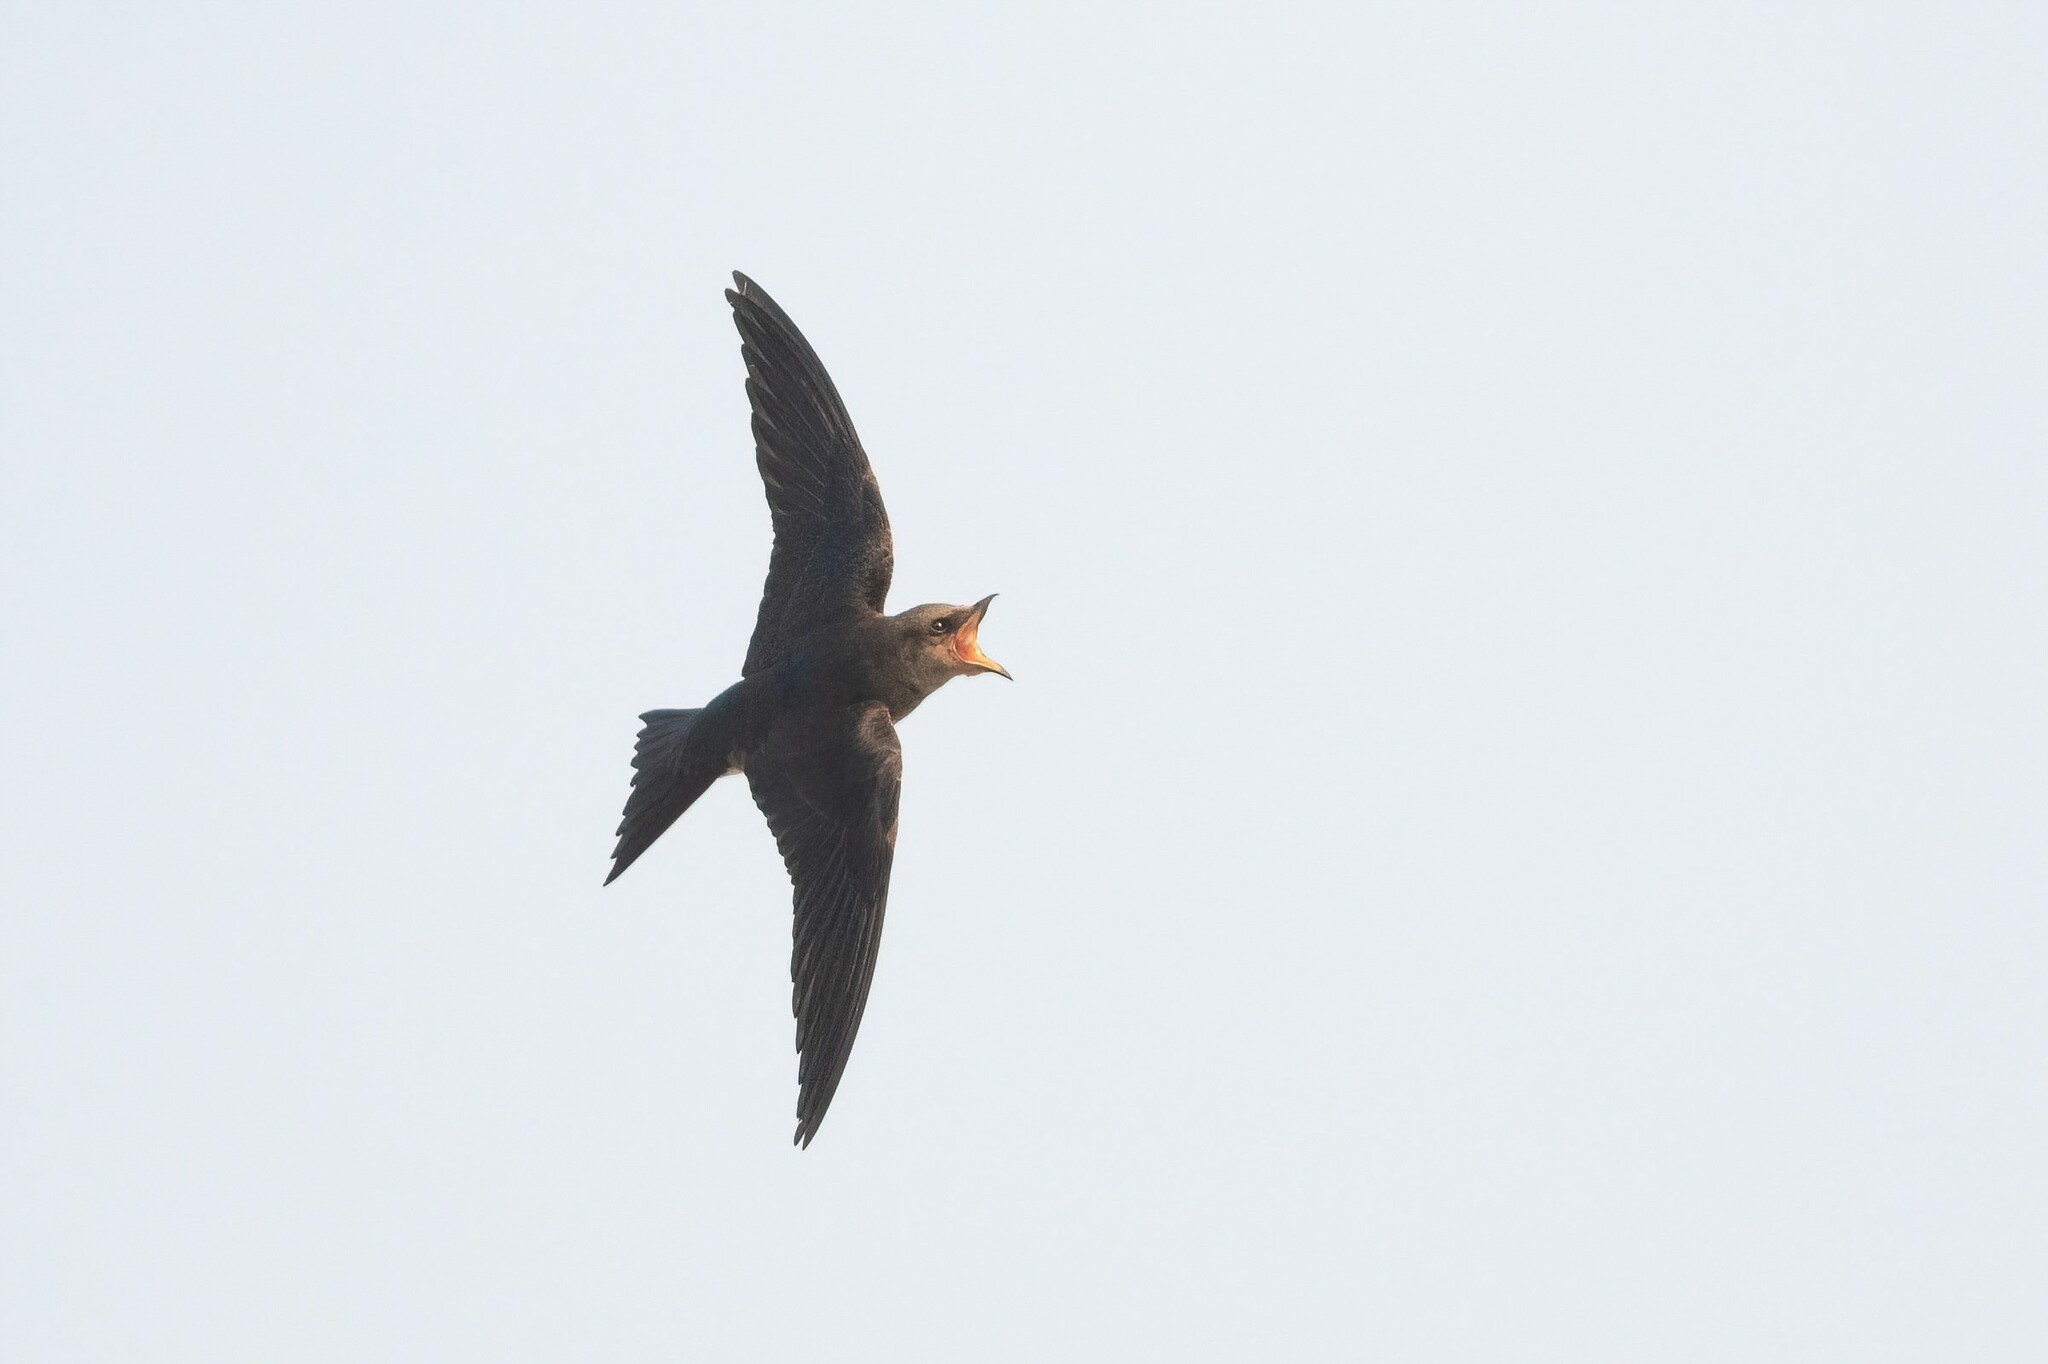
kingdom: Animalia
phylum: Chordata
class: Aves
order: Passeriformes
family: Hirundinidae
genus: Progne
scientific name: Progne chalybea
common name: Grey-breasted martin
